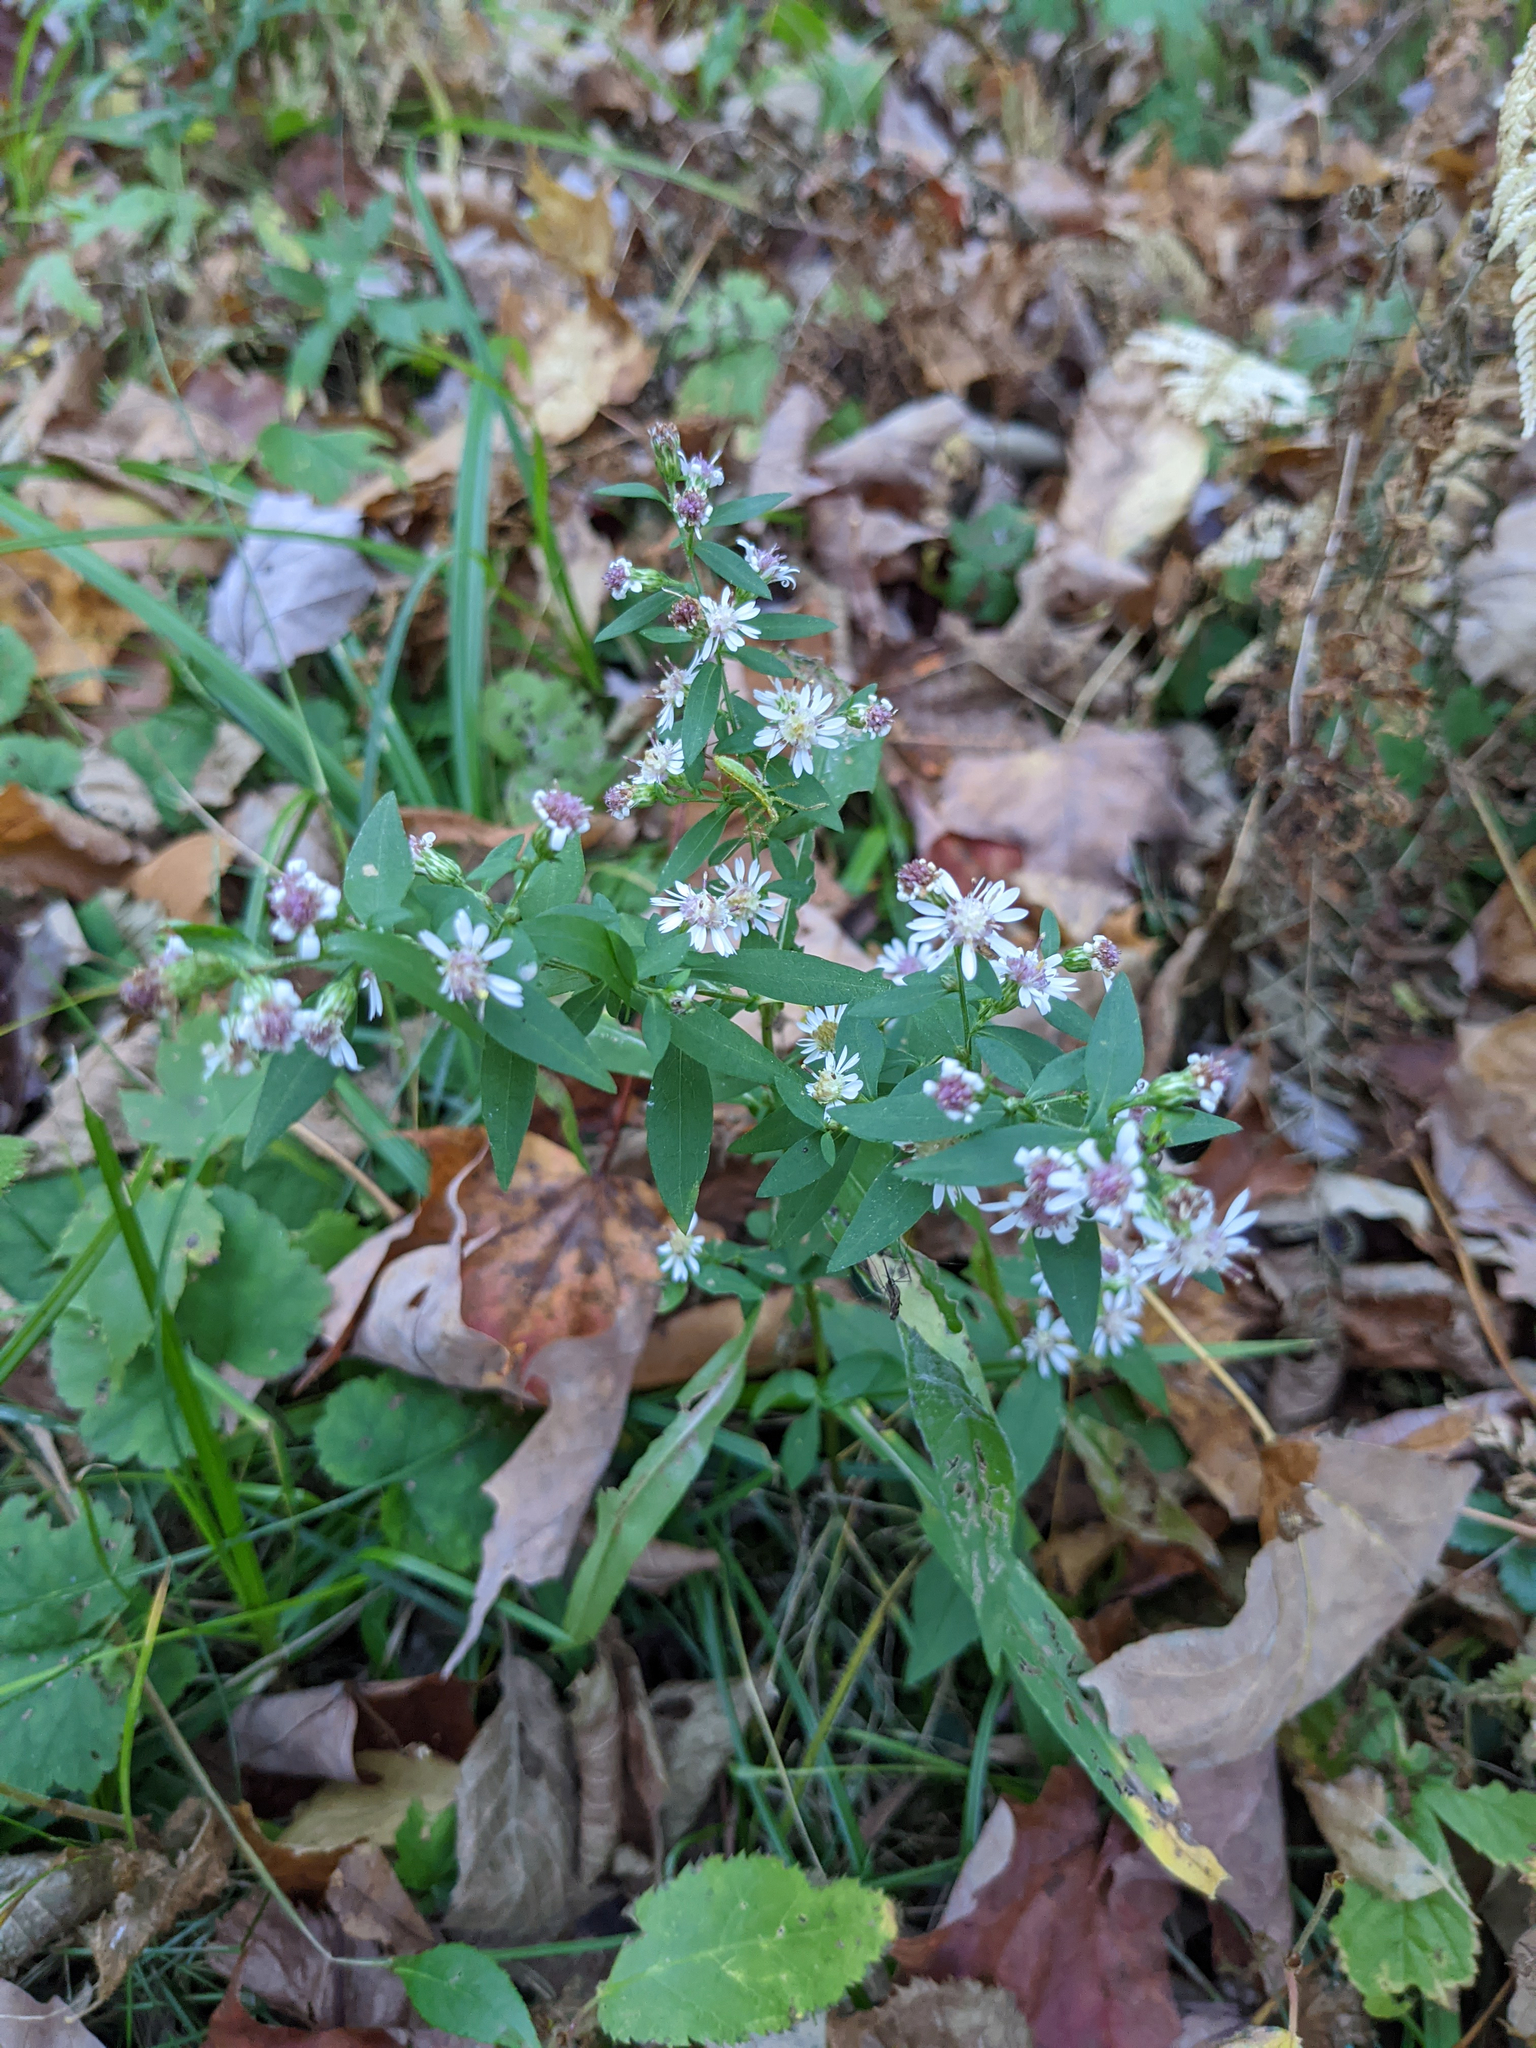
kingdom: Plantae
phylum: Tracheophyta
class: Magnoliopsida
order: Asterales
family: Asteraceae
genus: Symphyotrichum
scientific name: Symphyotrichum lateriflorum
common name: Calico aster
